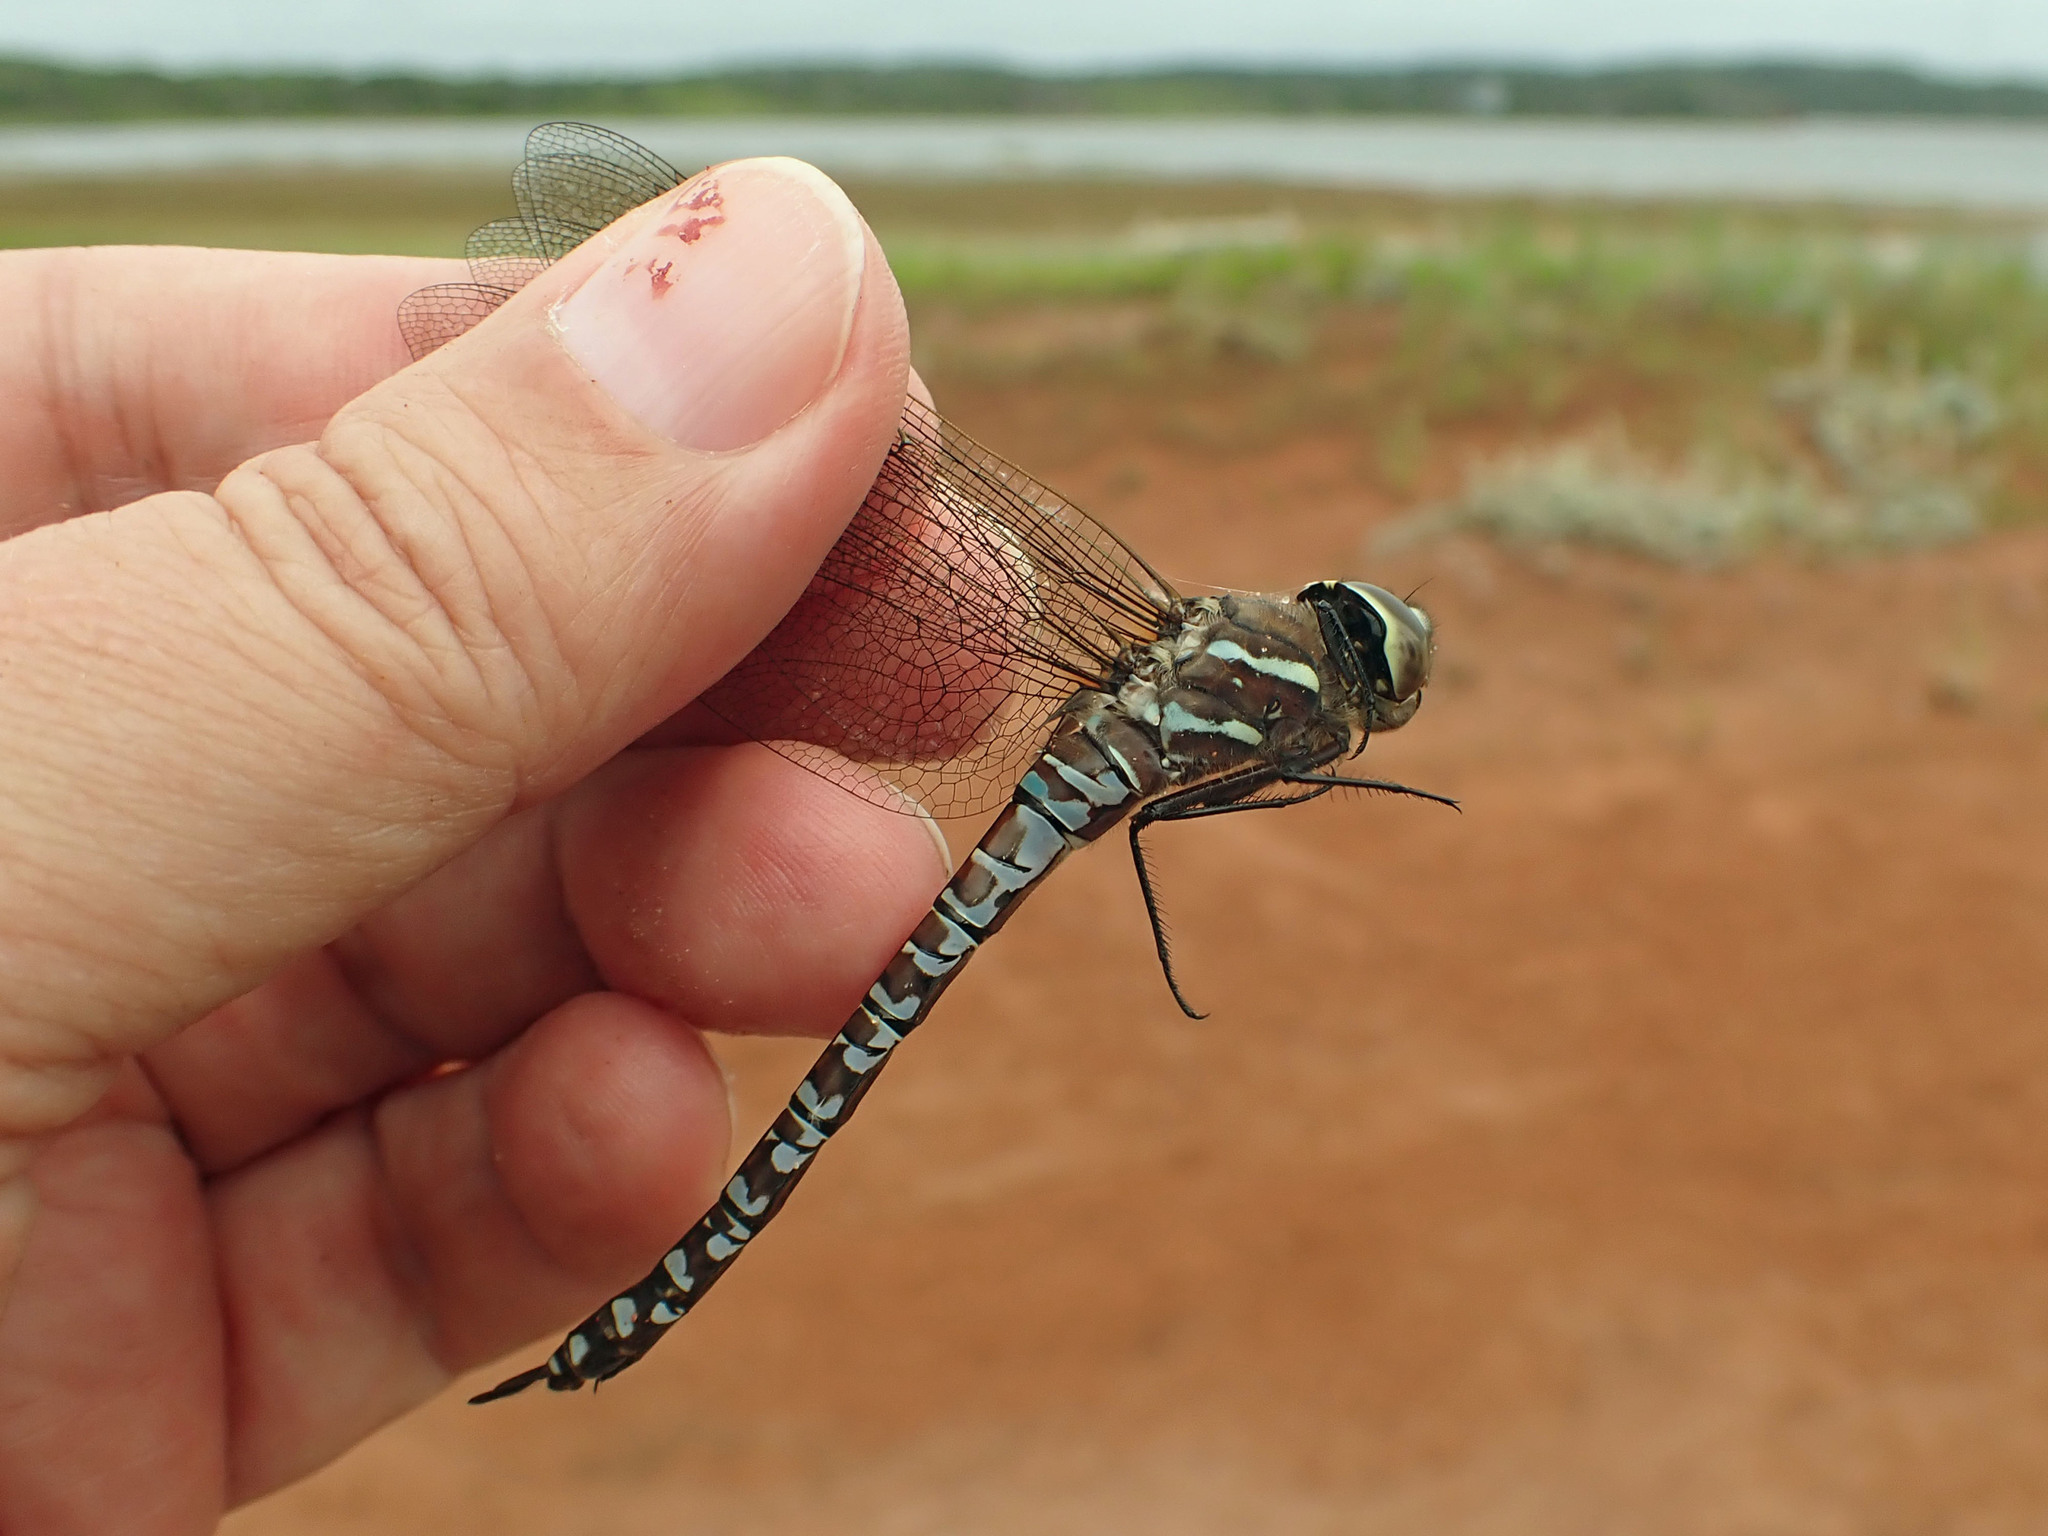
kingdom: Animalia
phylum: Arthropoda
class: Insecta
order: Odonata
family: Aeshnidae
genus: Aeshna
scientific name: Aeshna interrupta
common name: Variable darner
